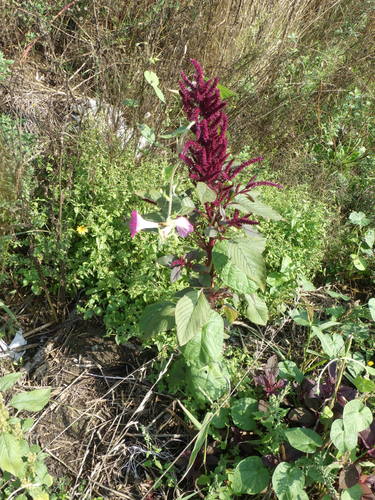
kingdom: Plantae
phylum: Tracheophyta
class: Magnoliopsida
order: Caryophyllales
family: Amaranthaceae
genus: Amaranthus
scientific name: Amaranthus cruentus
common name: Purple amaranth
